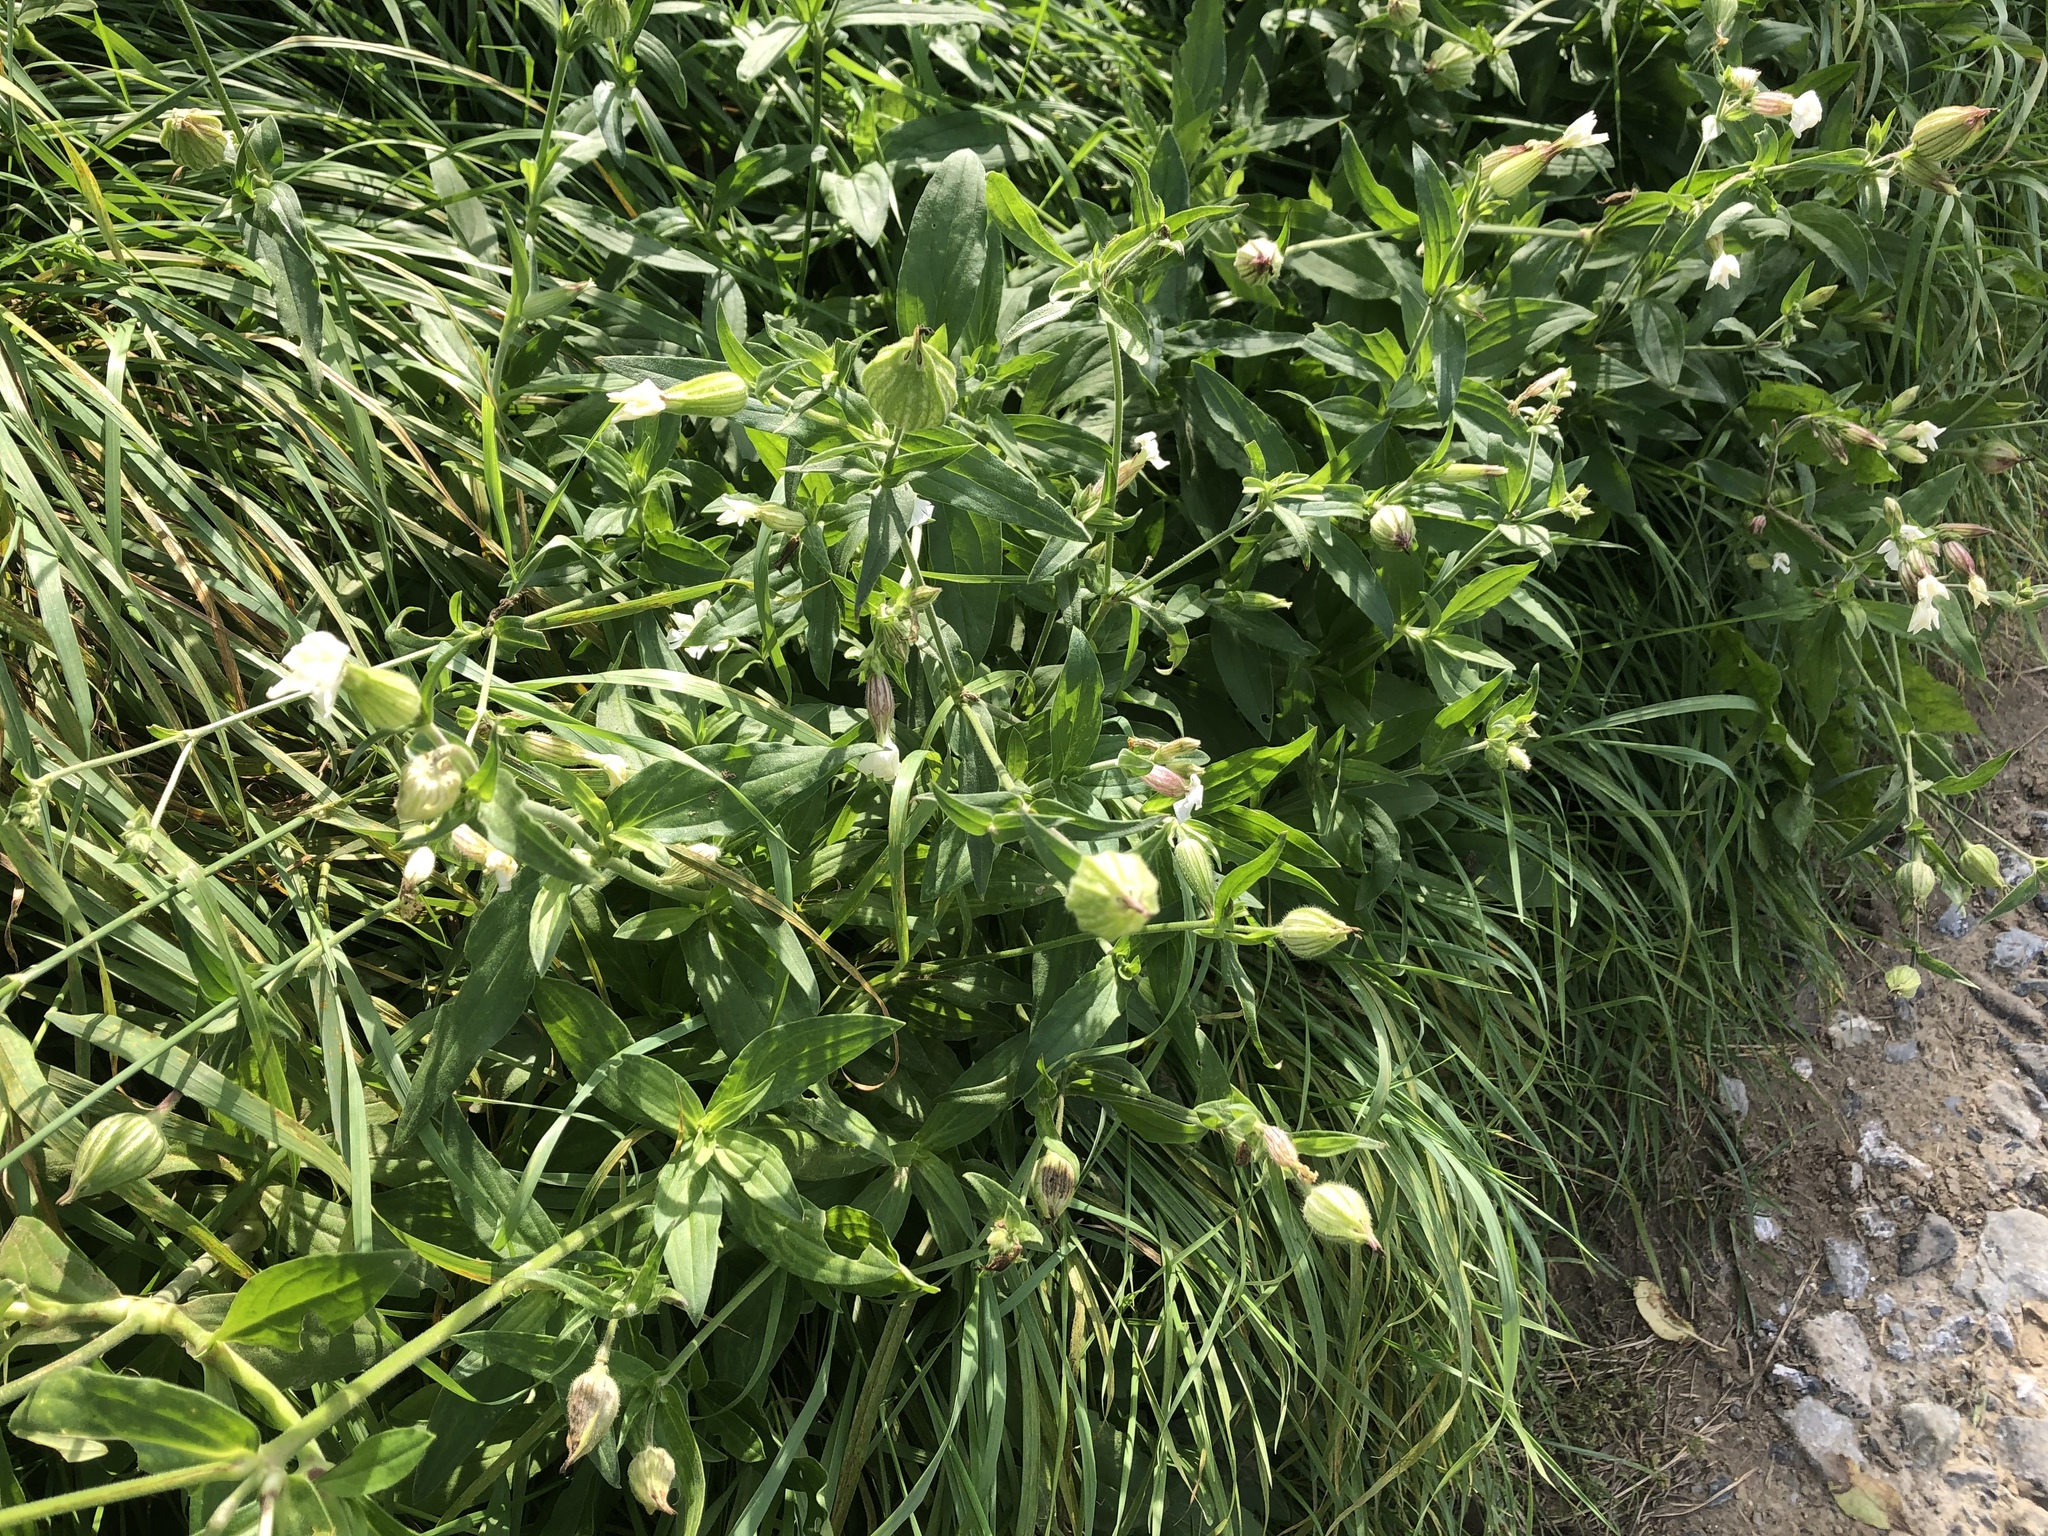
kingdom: Plantae
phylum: Tracheophyta
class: Magnoliopsida
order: Caryophyllales
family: Caryophyllaceae
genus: Silene
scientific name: Silene latifolia
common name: White campion
